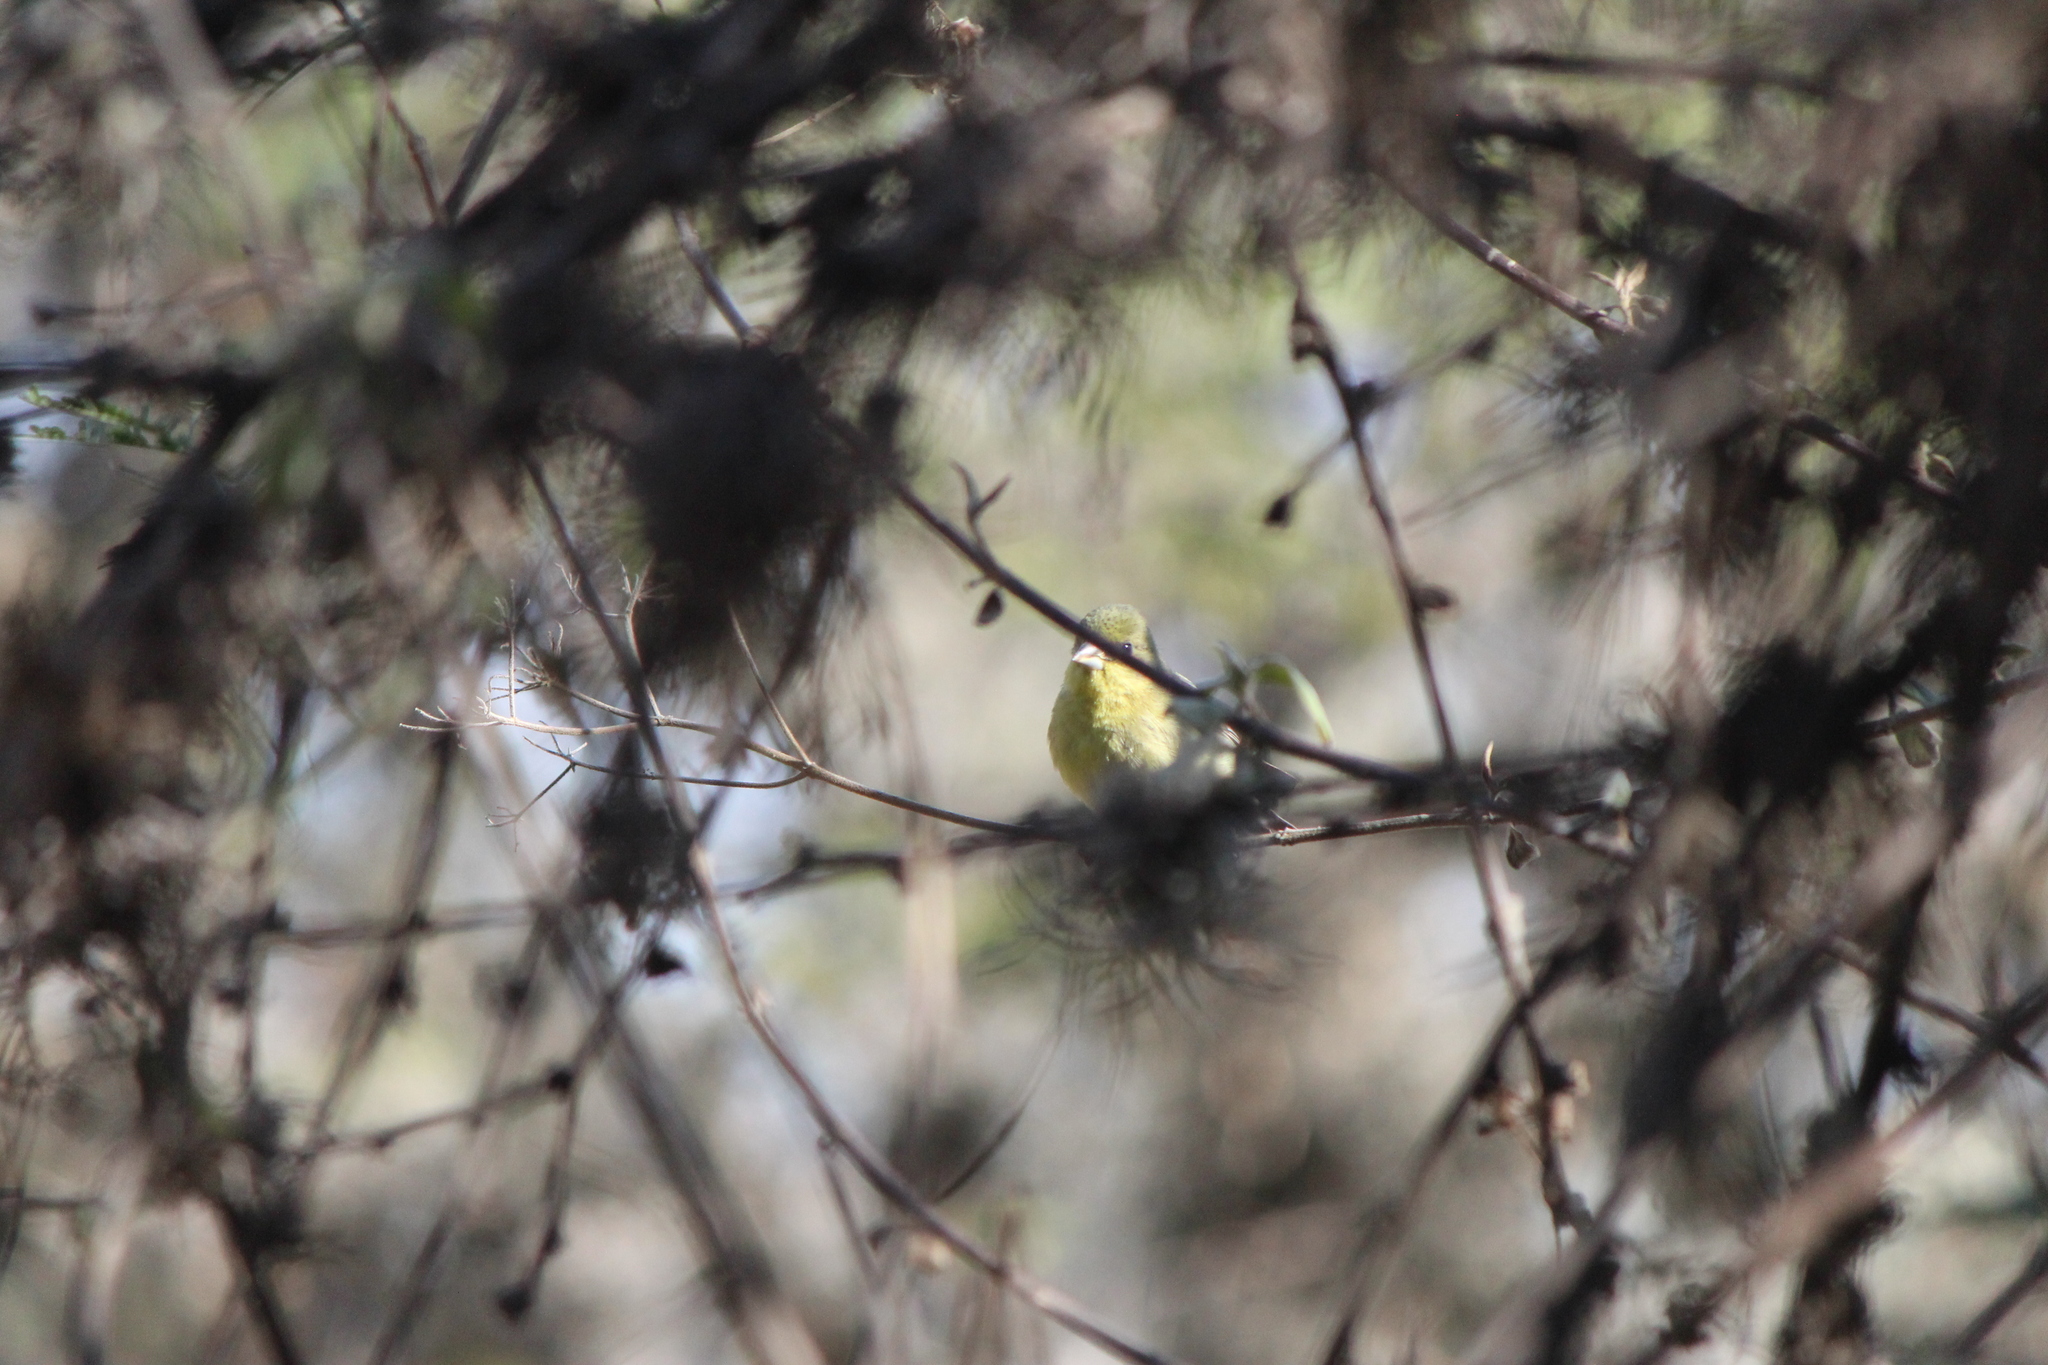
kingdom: Animalia
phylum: Chordata
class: Aves
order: Passeriformes
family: Fringillidae
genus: Spinus
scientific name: Spinus psaltria
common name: Lesser goldfinch
